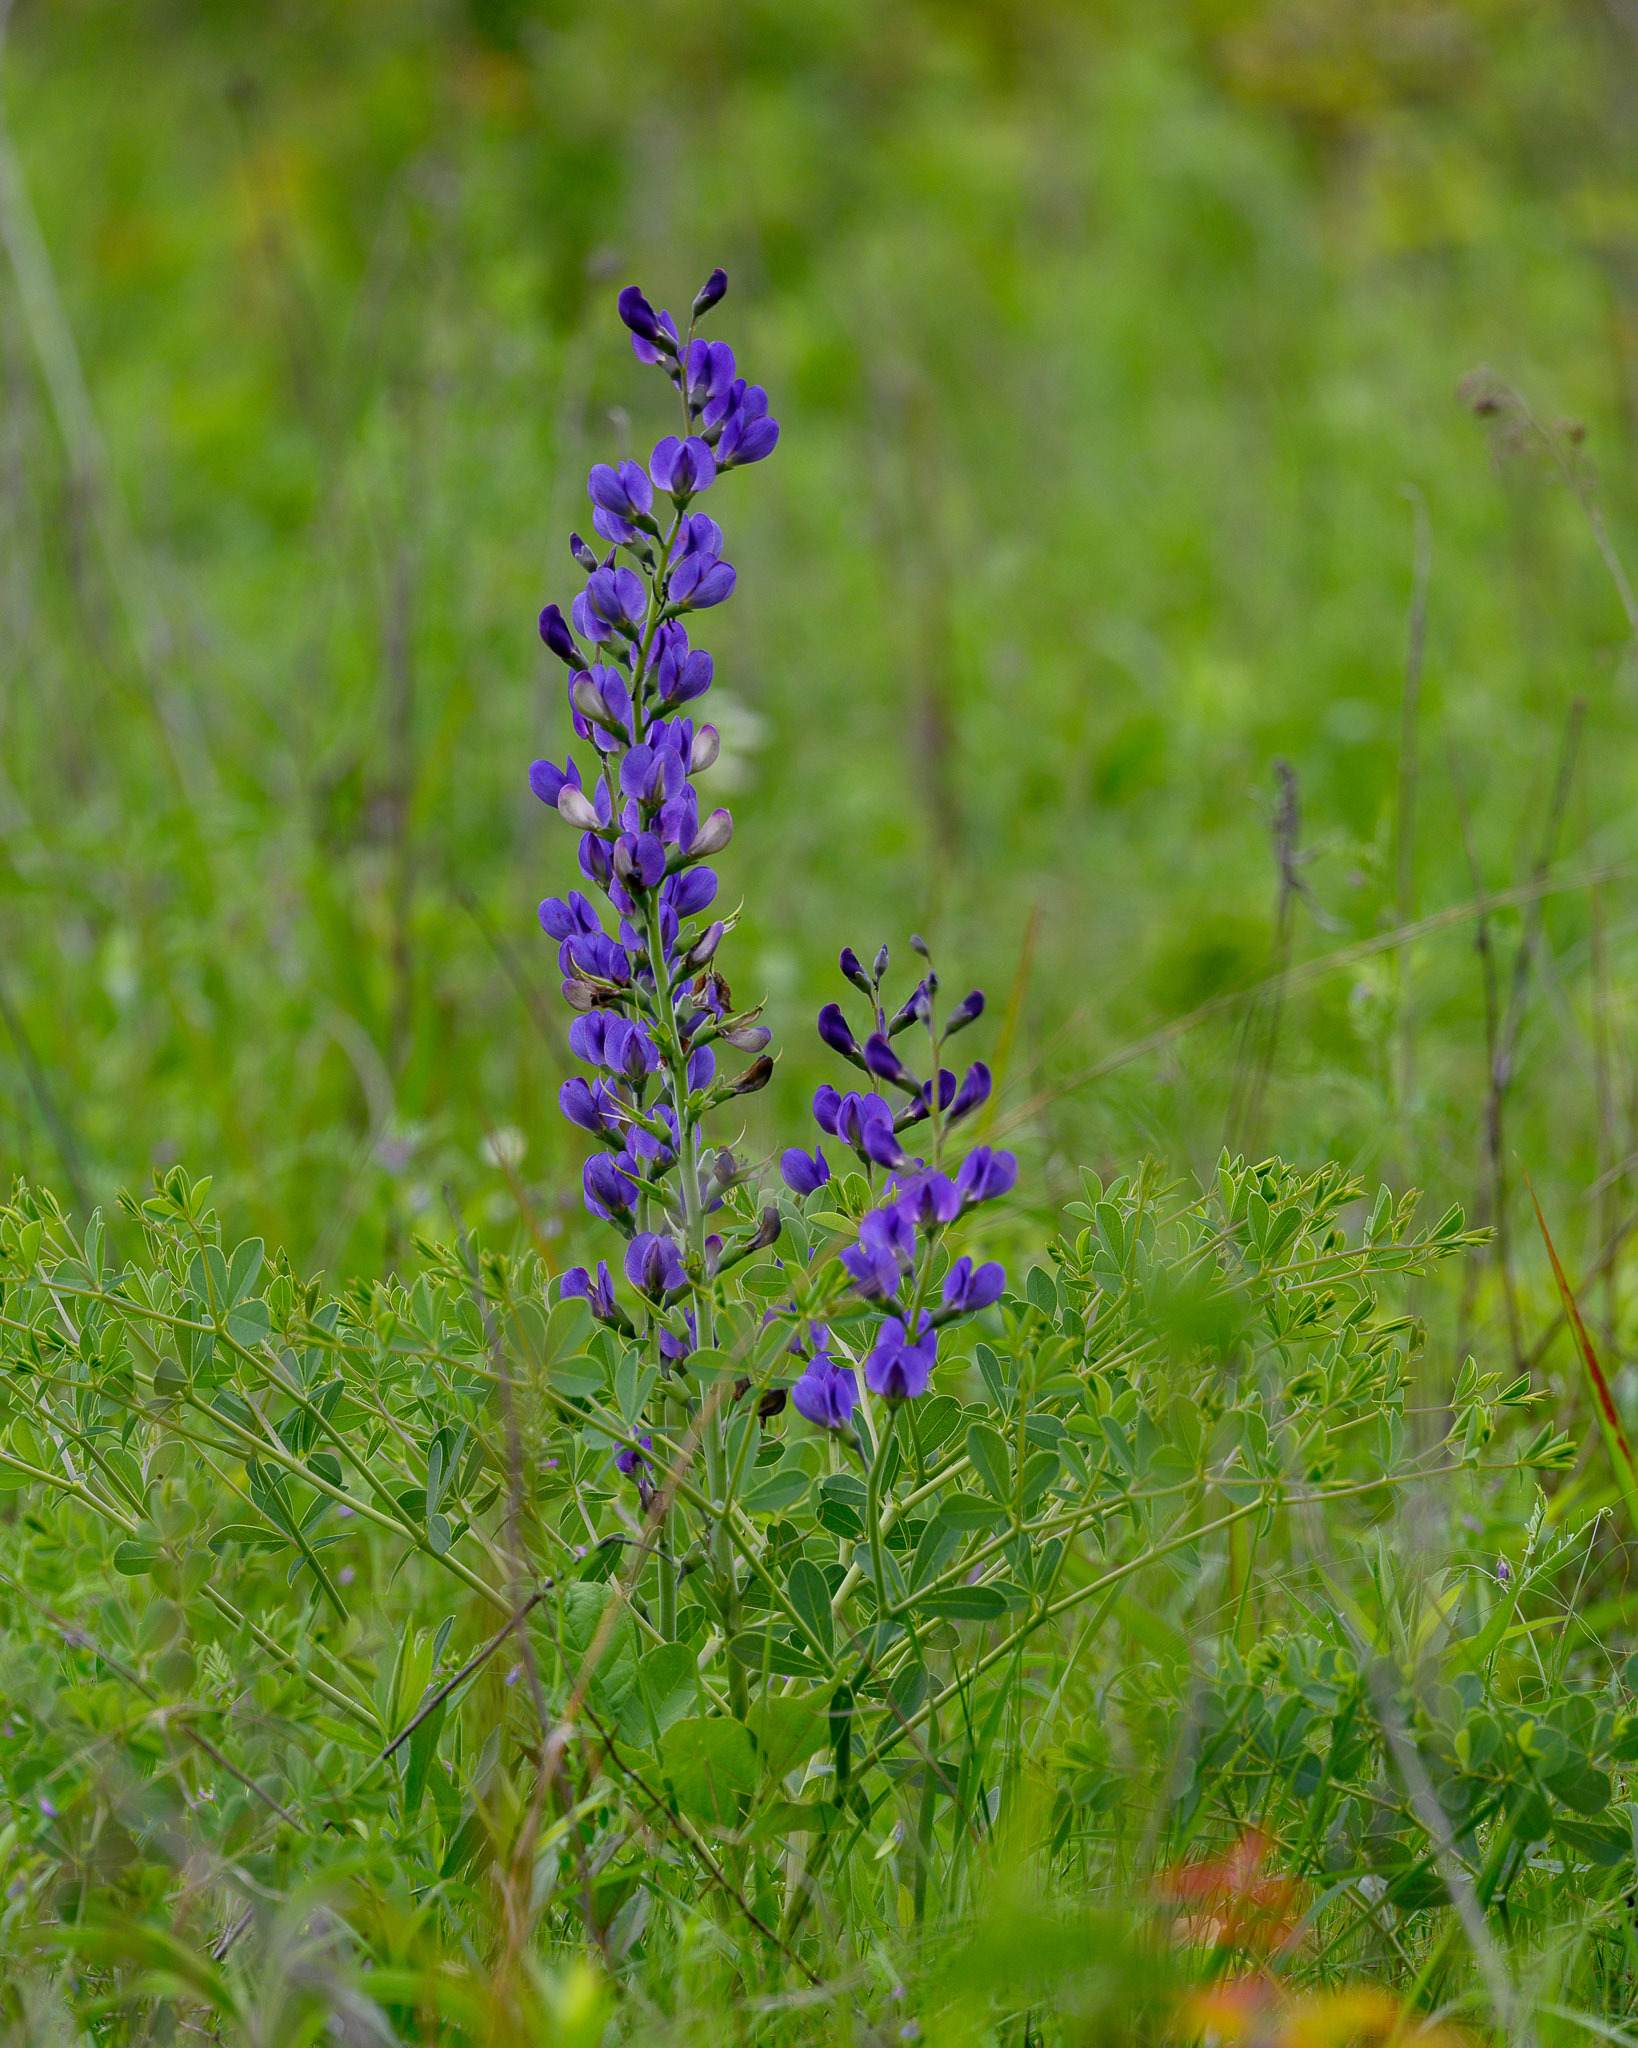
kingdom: Plantae
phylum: Tracheophyta
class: Magnoliopsida
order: Fabales
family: Fabaceae
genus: Baptisia
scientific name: Baptisia australis
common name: Blue false indigo
